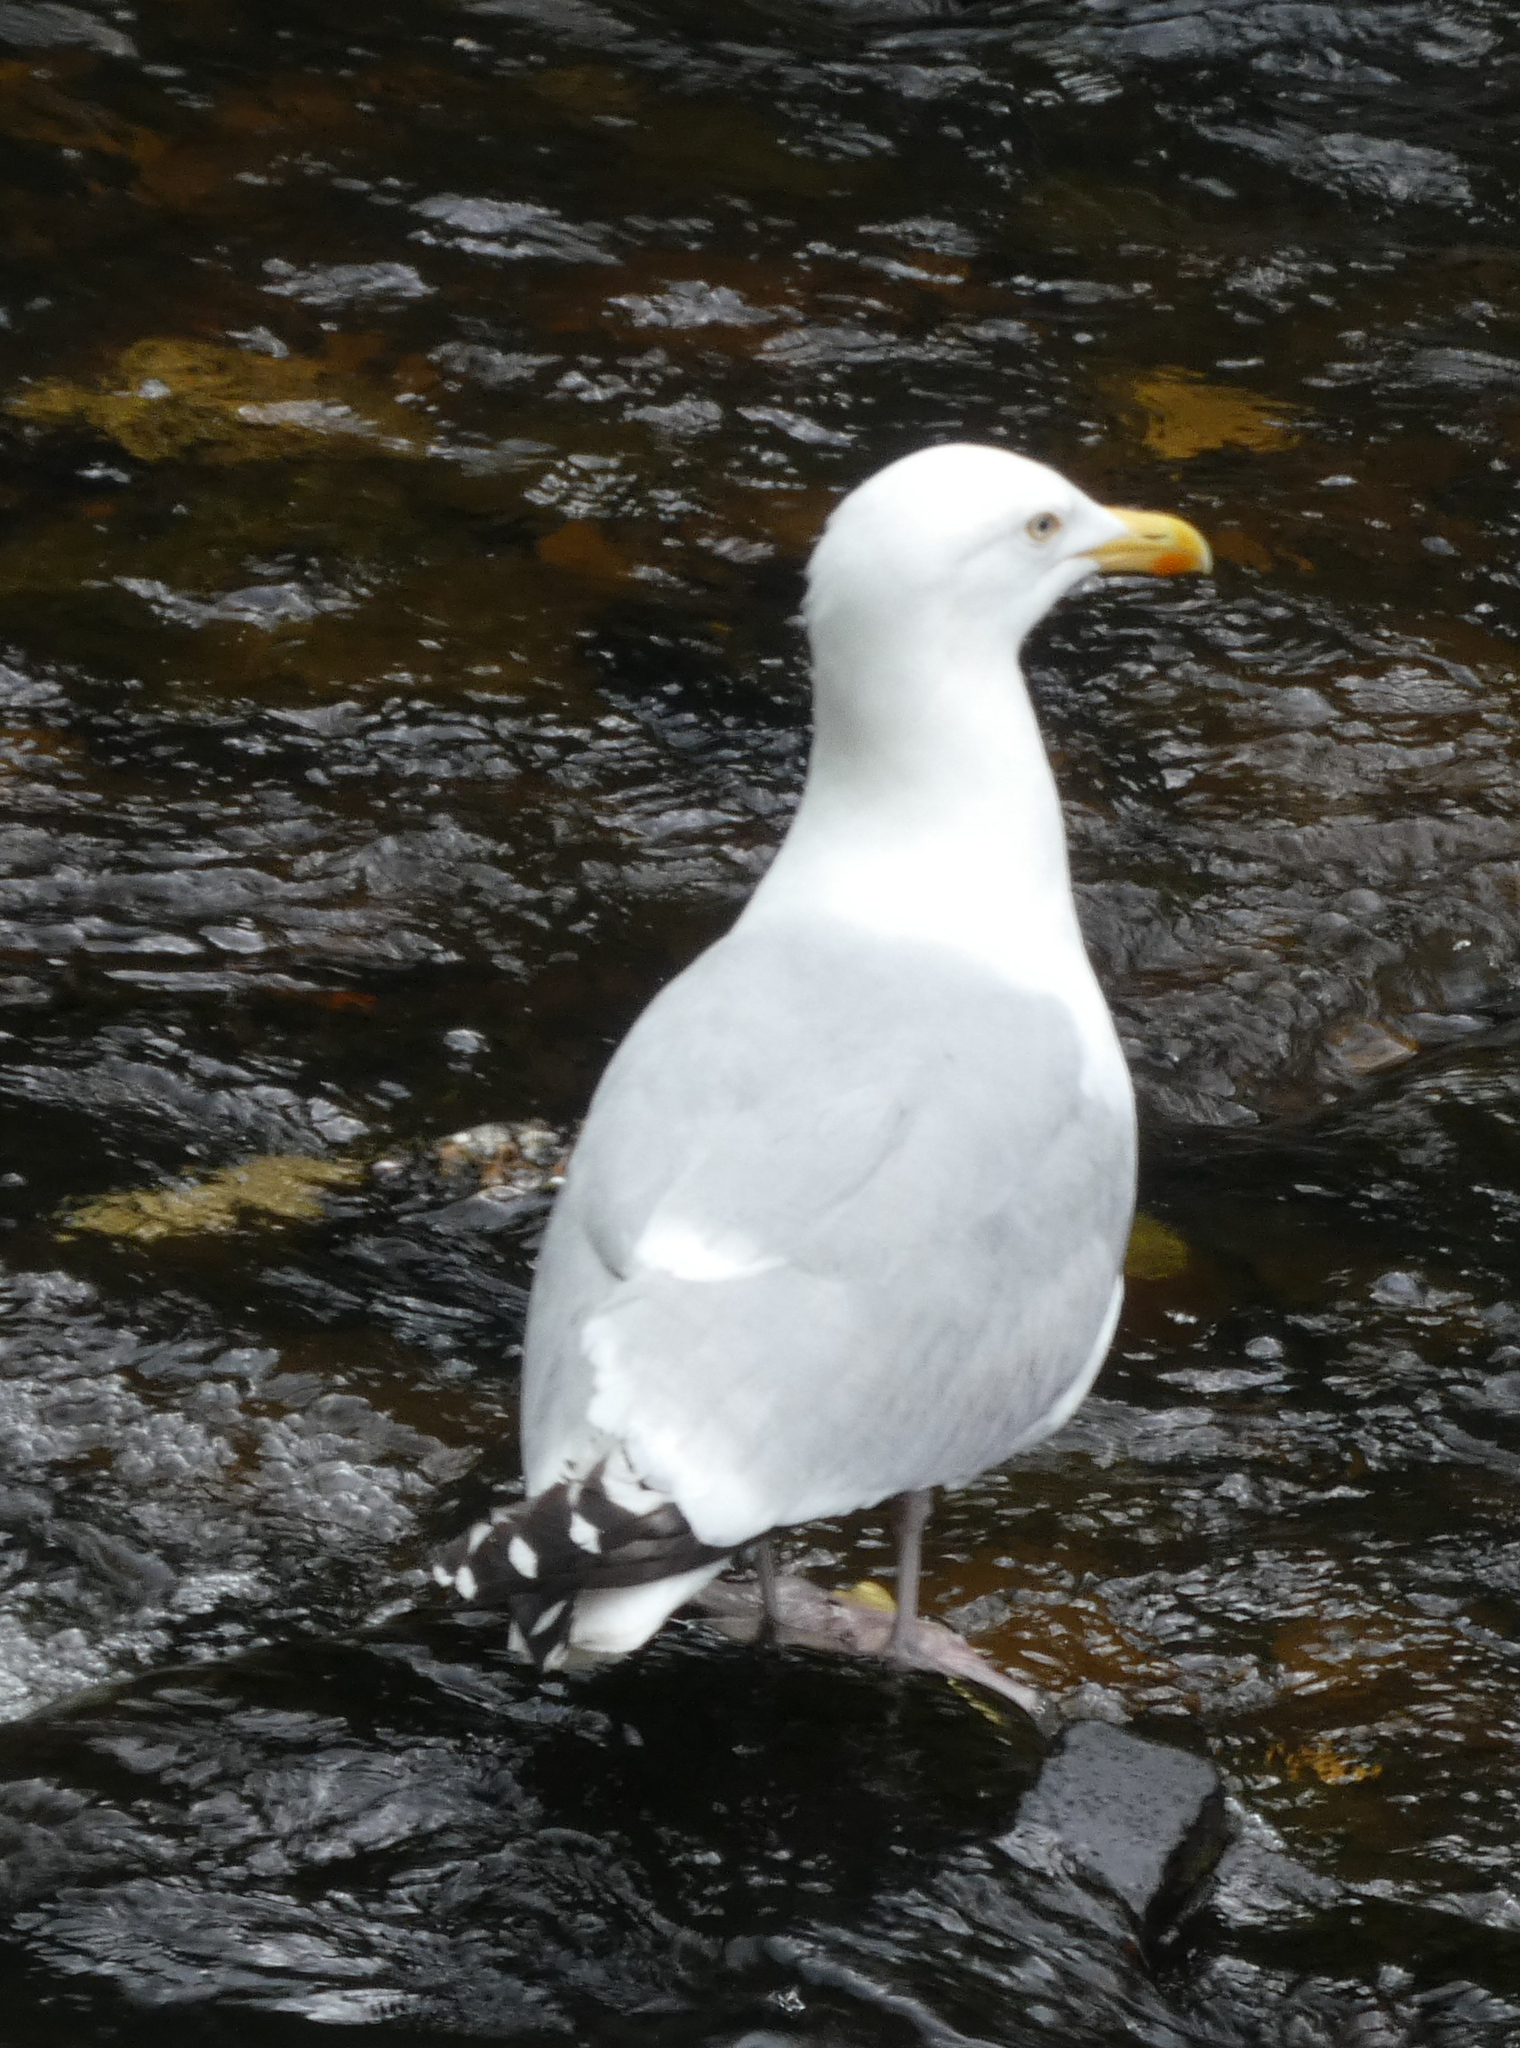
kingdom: Animalia
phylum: Chordata
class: Aves
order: Charadriiformes
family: Laridae
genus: Larus
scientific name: Larus argentatus
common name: Herring gull
